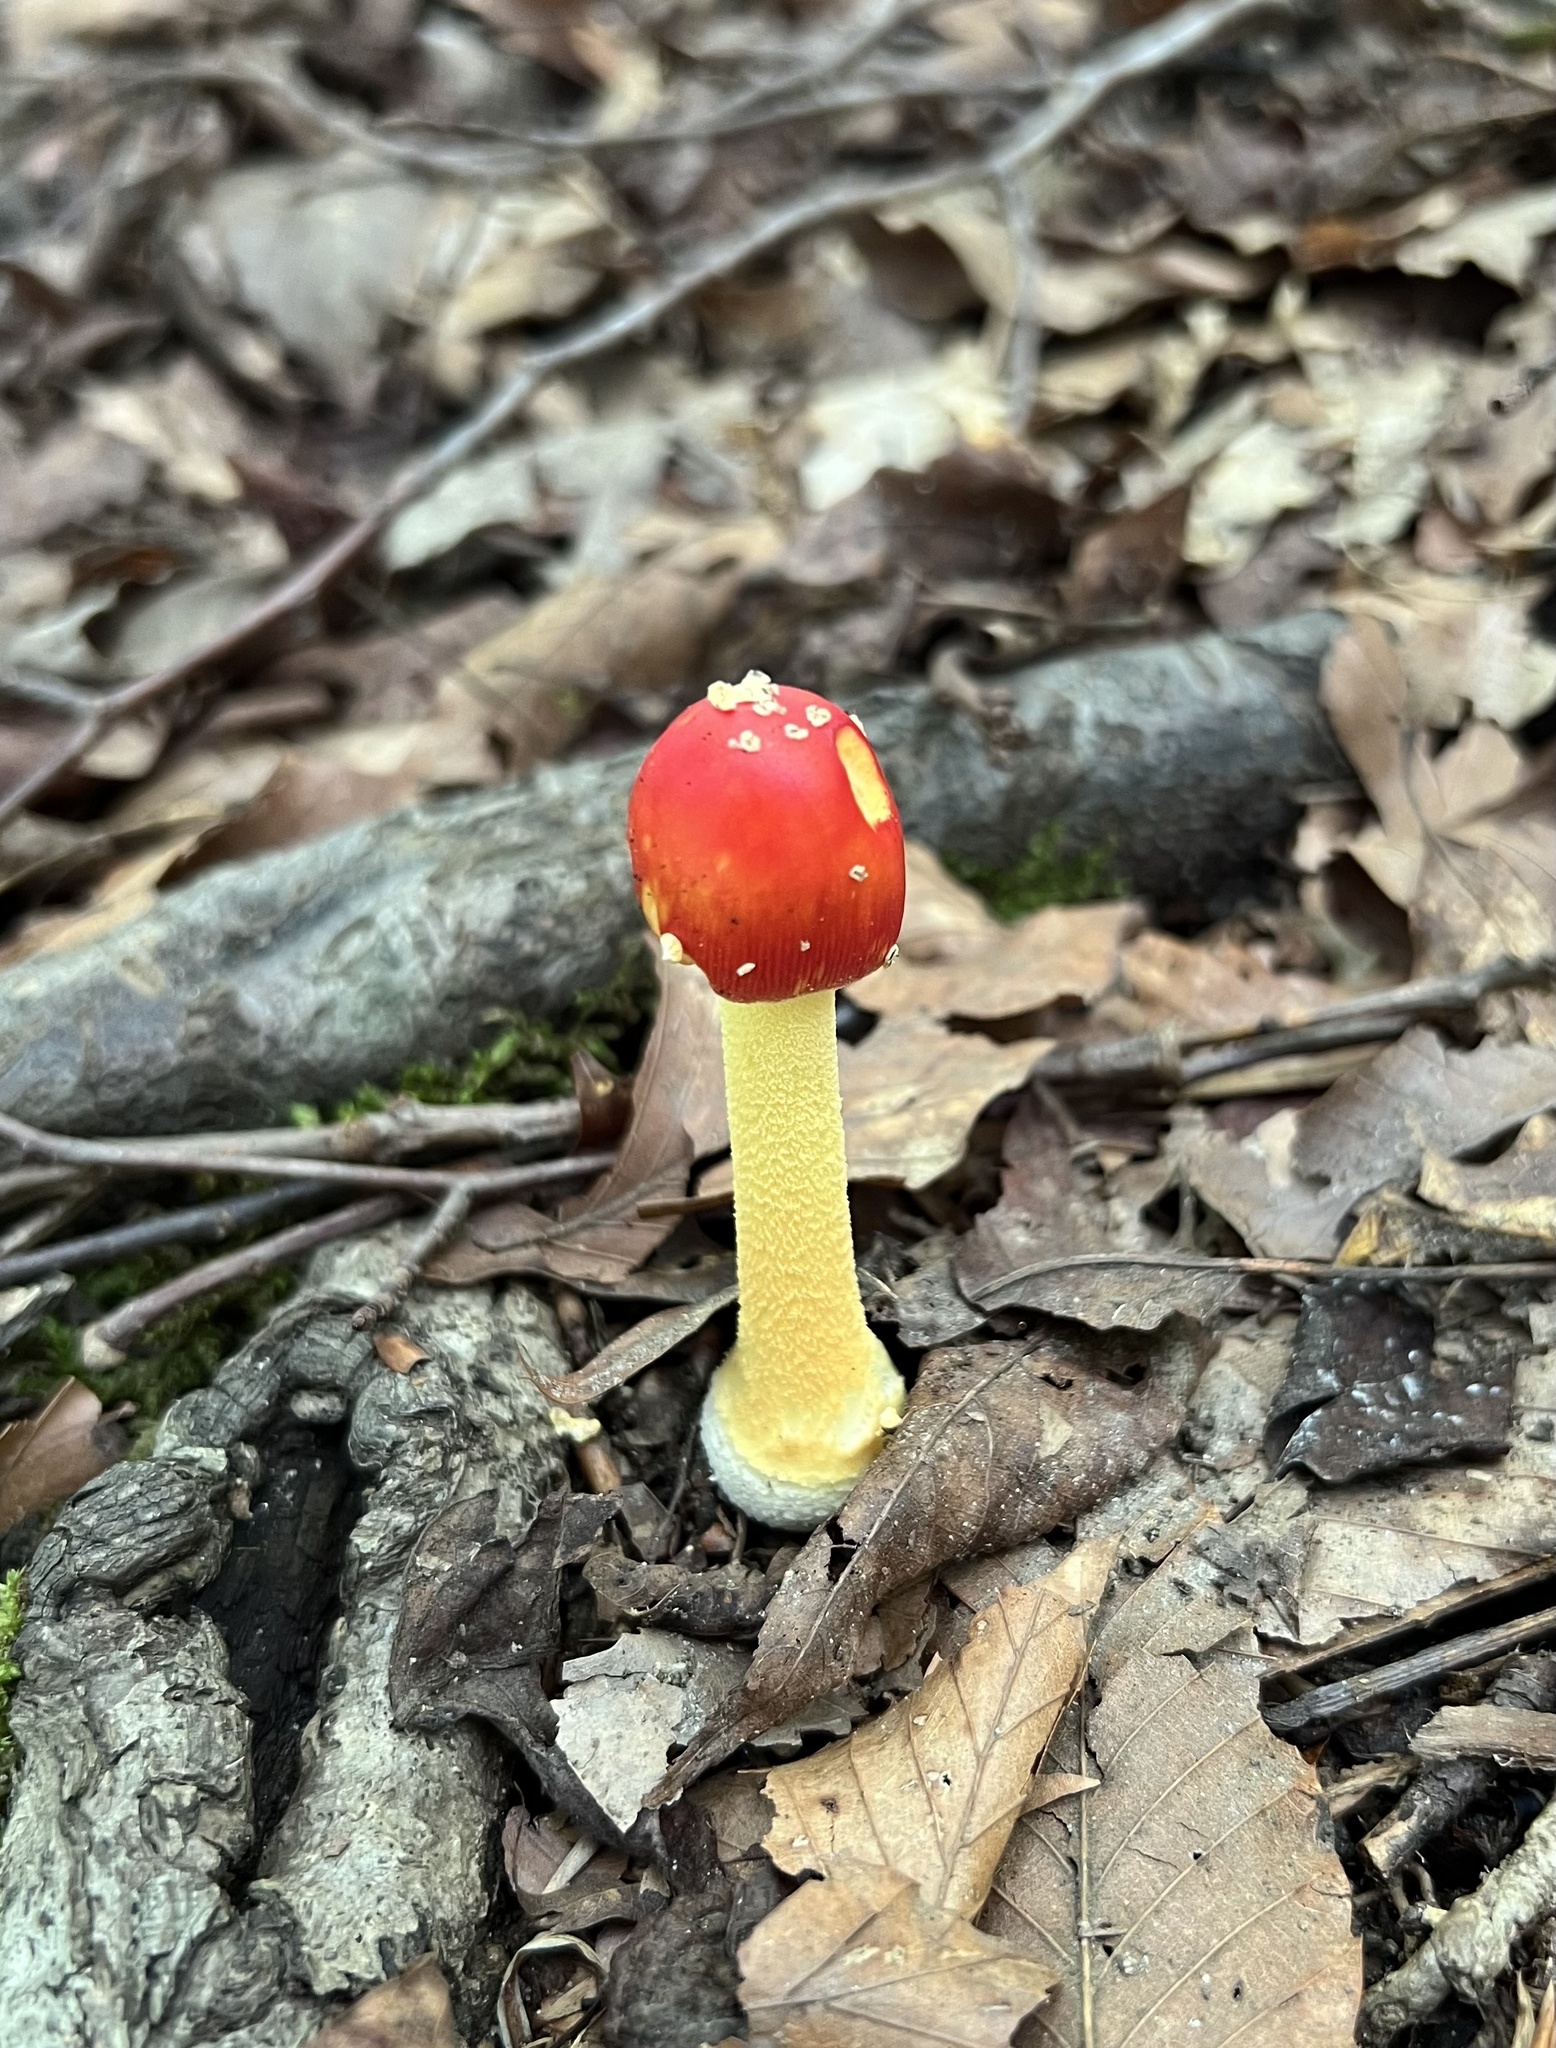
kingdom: Fungi
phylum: Basidiomycota
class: Agaricomycetes
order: Agaricales
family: Amanitaceae
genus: Amanita
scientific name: Amanita parcivolvata
